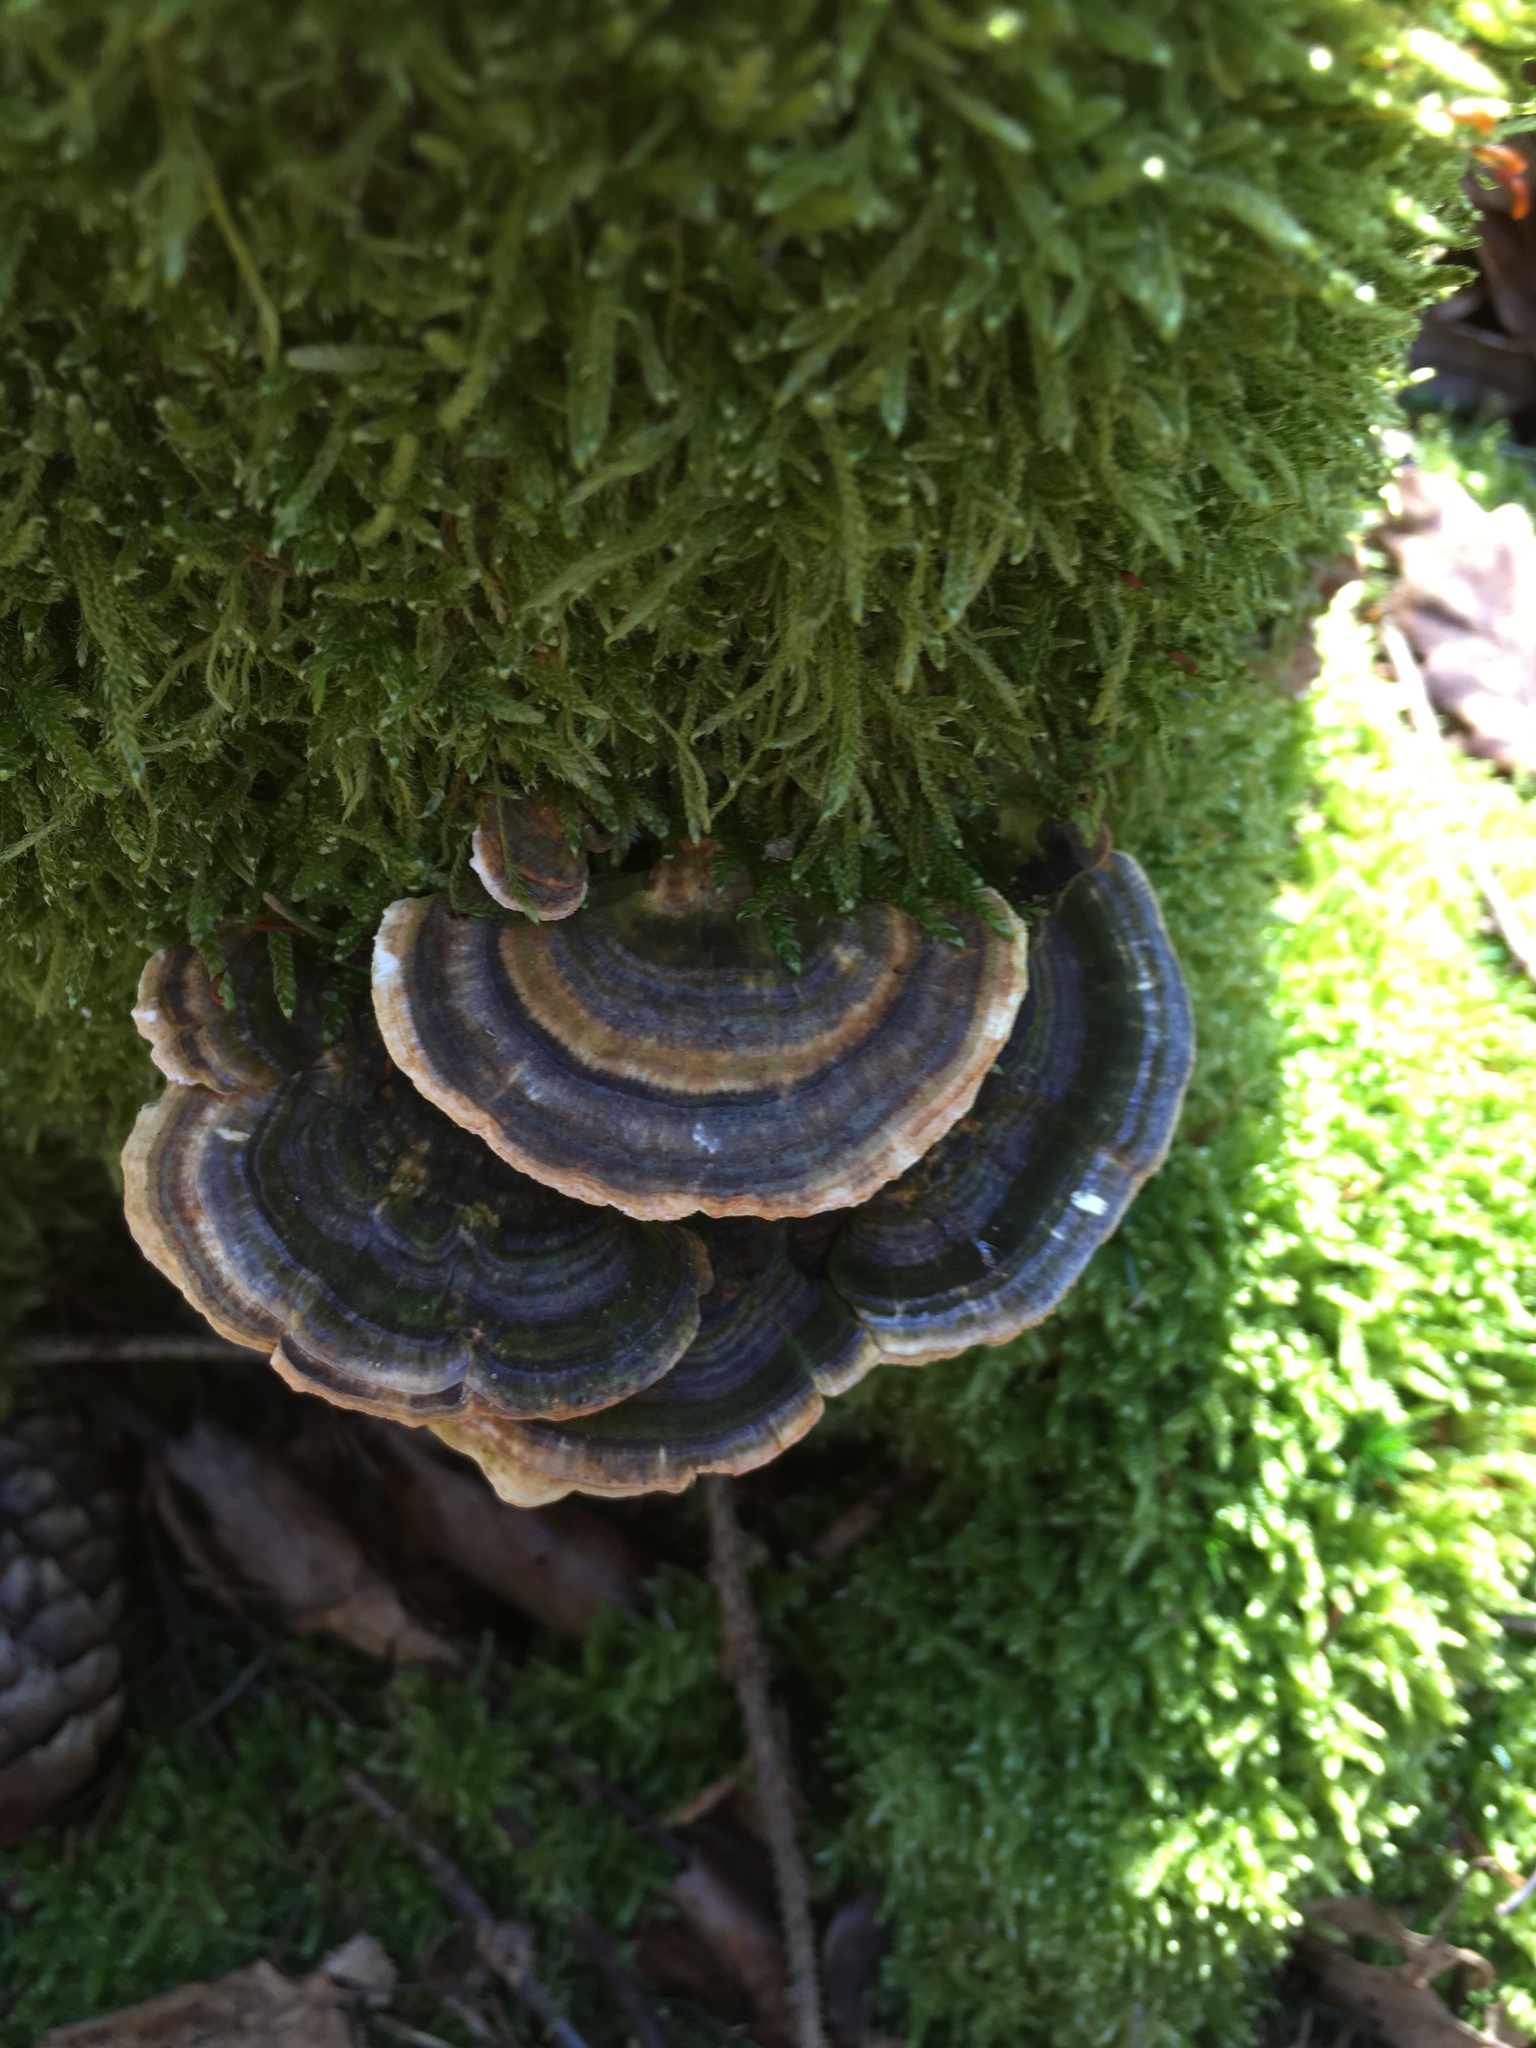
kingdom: Fungi
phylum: Basidiomycota
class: Agaricomycetes
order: Polyporales
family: Polyporaceae
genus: Trametes
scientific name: Trametes versicolor
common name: Turkeytail
